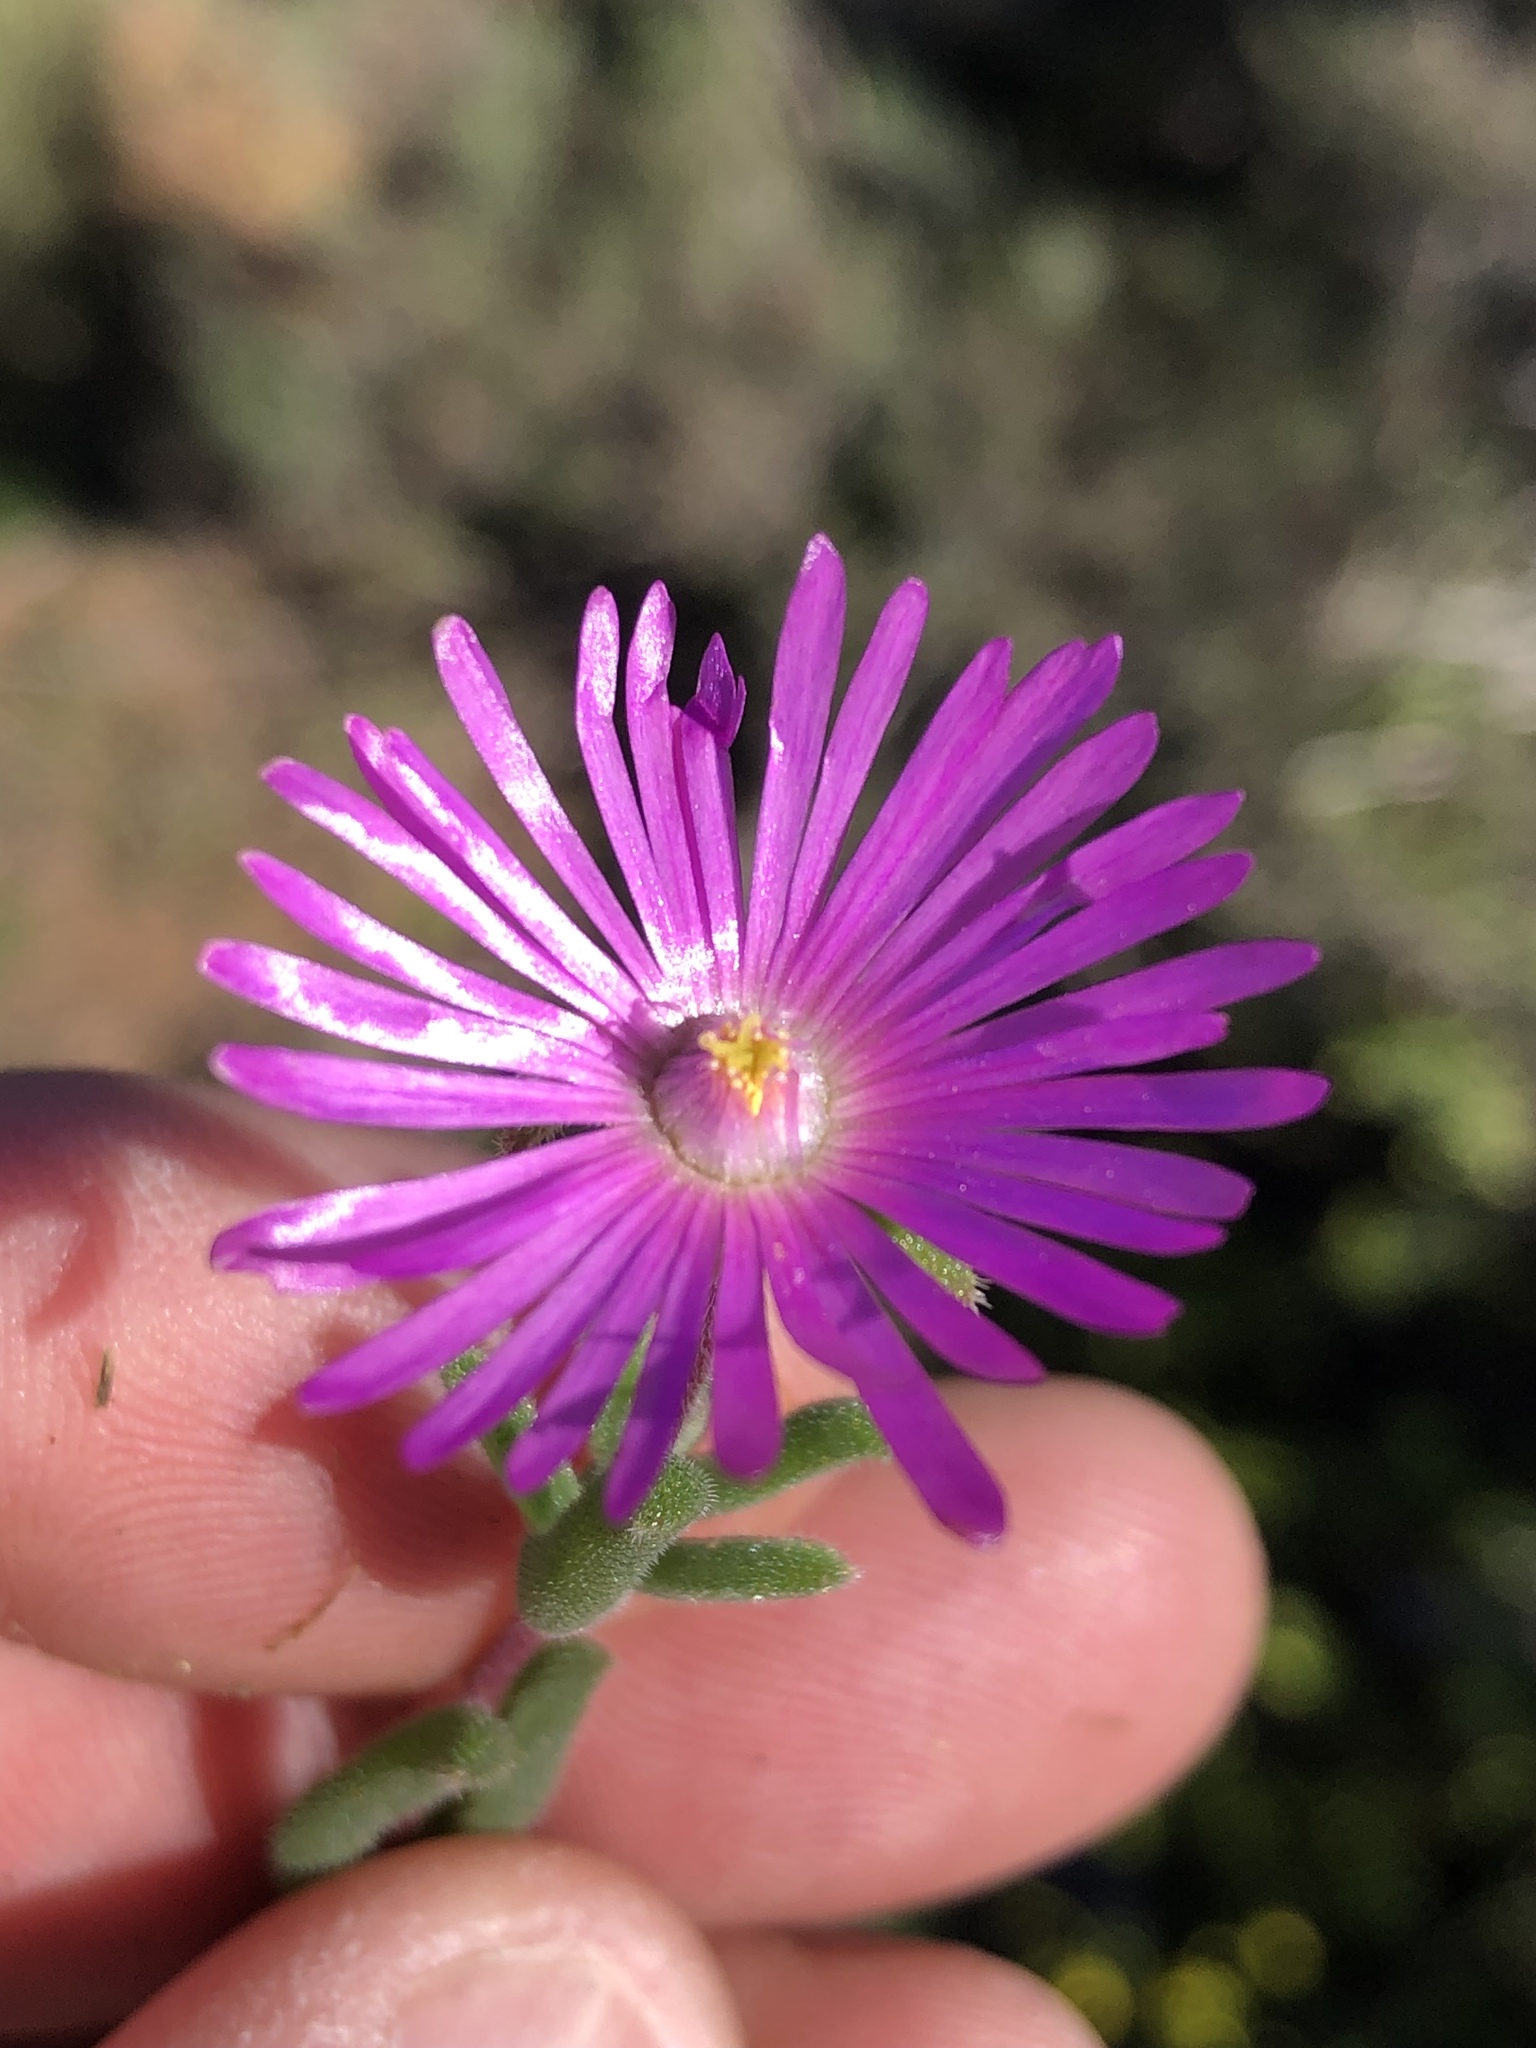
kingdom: Plantae
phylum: Tracheophyta
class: Magnoliopsida
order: Caryophyllales
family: Aizoaceae
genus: Delosperma
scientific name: Delosperma neethlingiae
